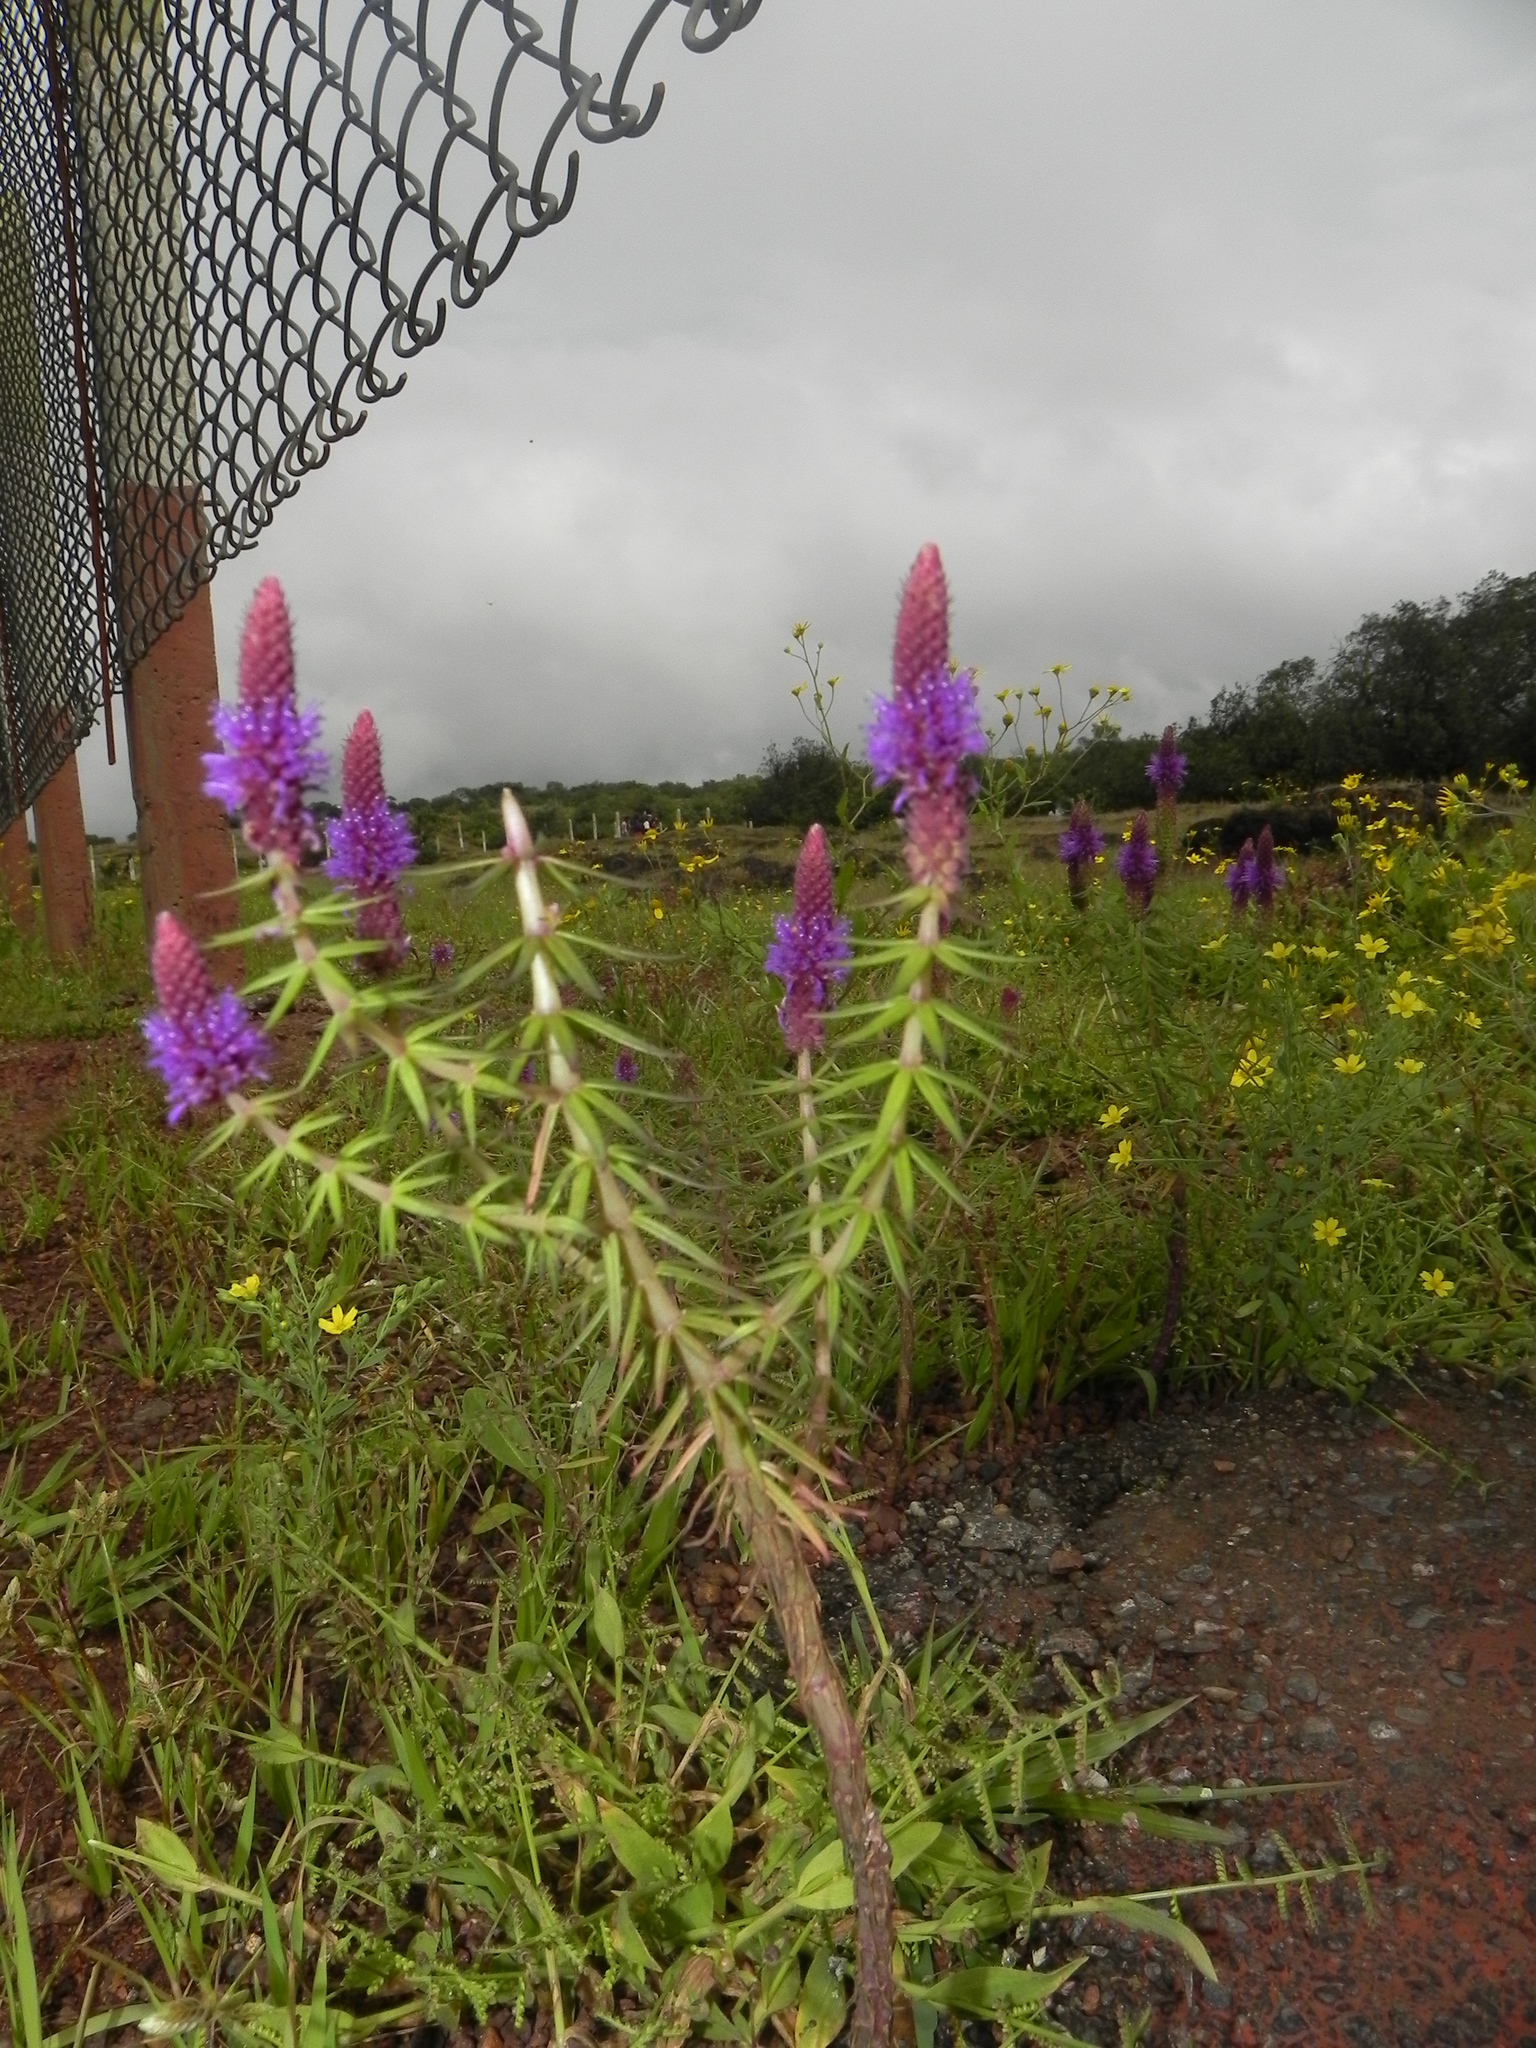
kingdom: Plantae
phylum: Tracheophyta
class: Magnoliopsida
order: Lamiales
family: Lamiaceae
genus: Pogostemon
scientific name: Pogostemon deccanensis
